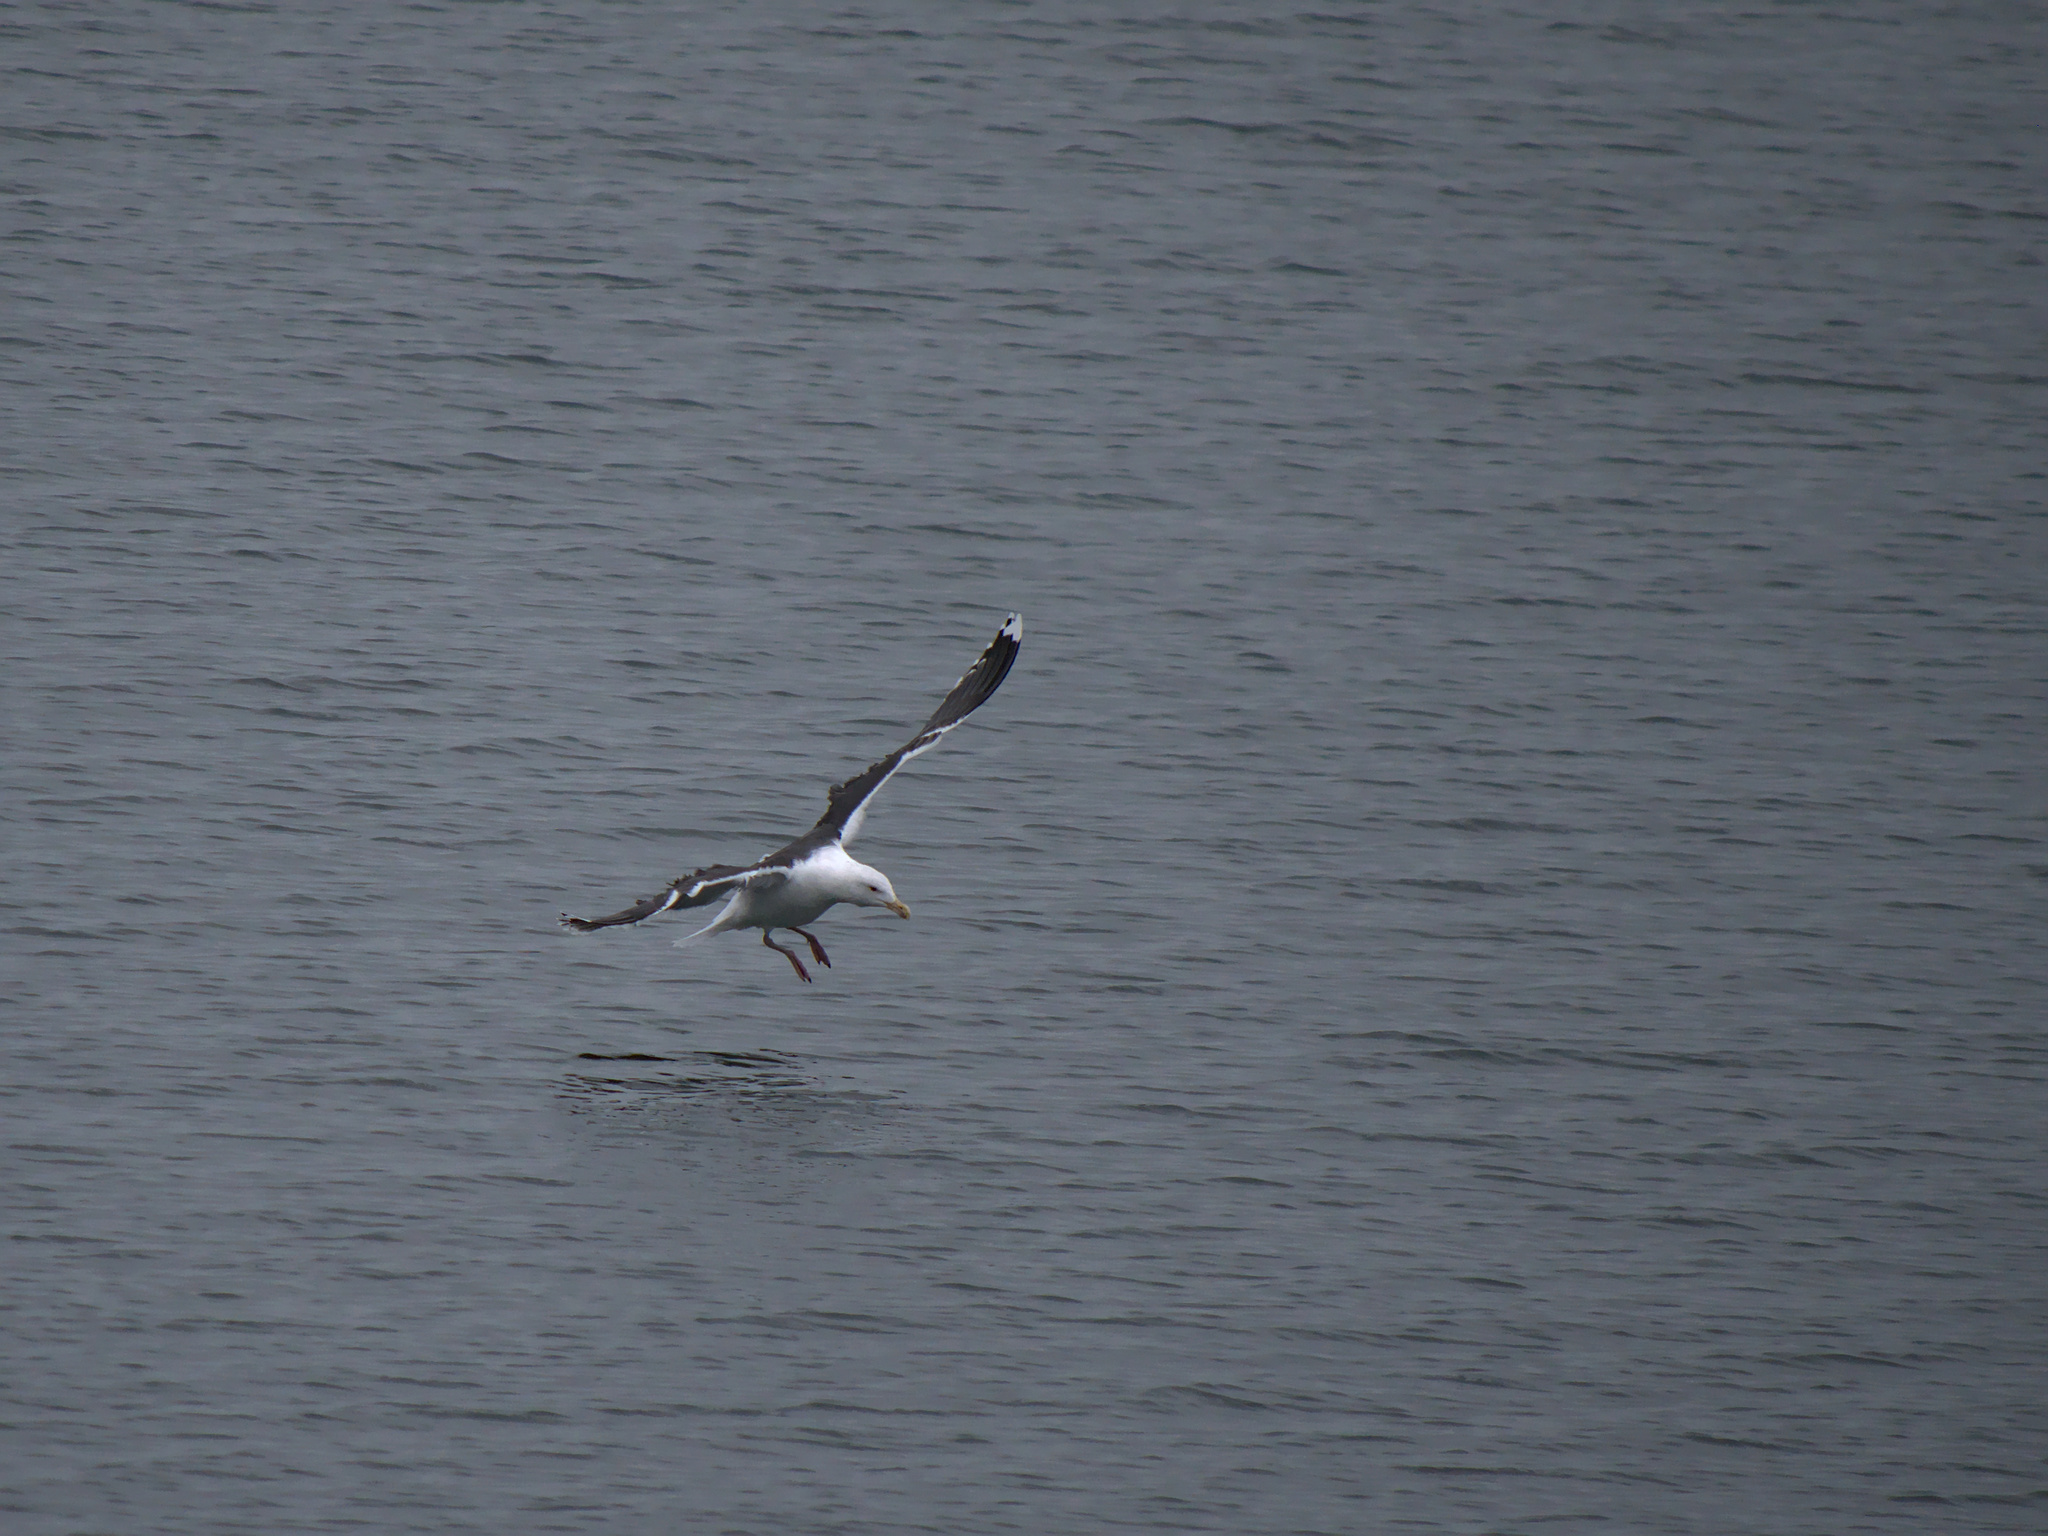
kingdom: Animalia
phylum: Chordata
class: Aves
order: Charadriiformes
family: Laridae
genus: Larus
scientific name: Larus marinus
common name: Great black-backed gull
